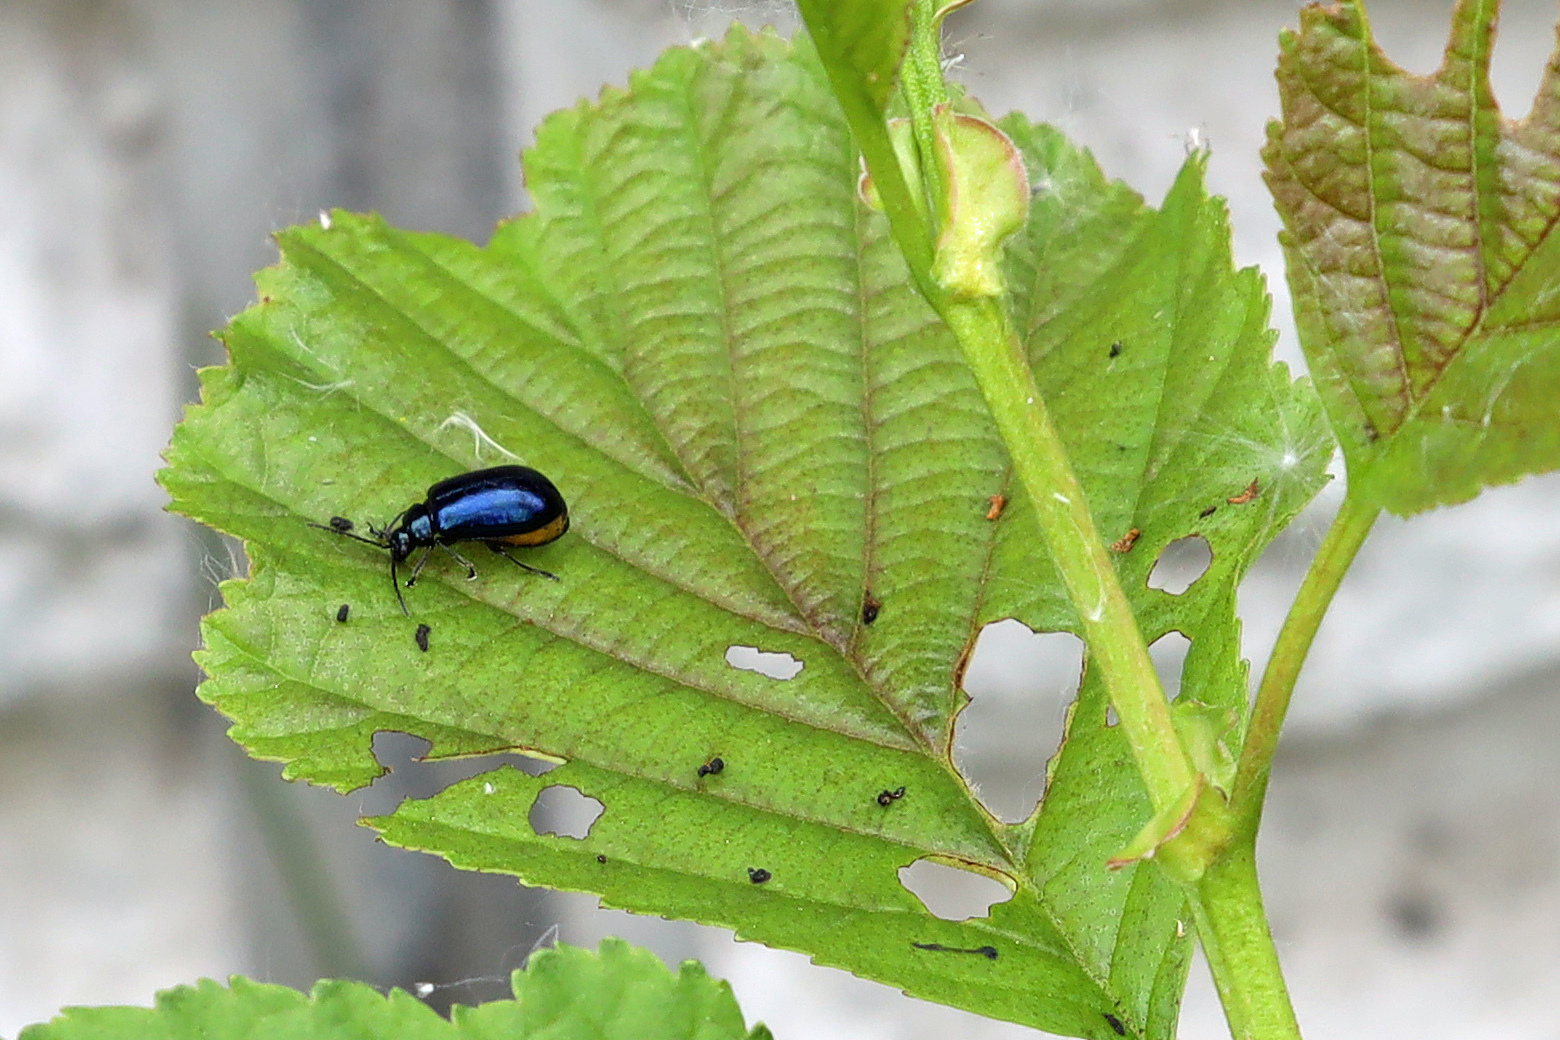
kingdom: Animalia
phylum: Arthropoda
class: Insecta
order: Coleoptera
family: Chrysomelidae
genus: Agelastica
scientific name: Agelastica alni
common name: Alder leaf beetle
